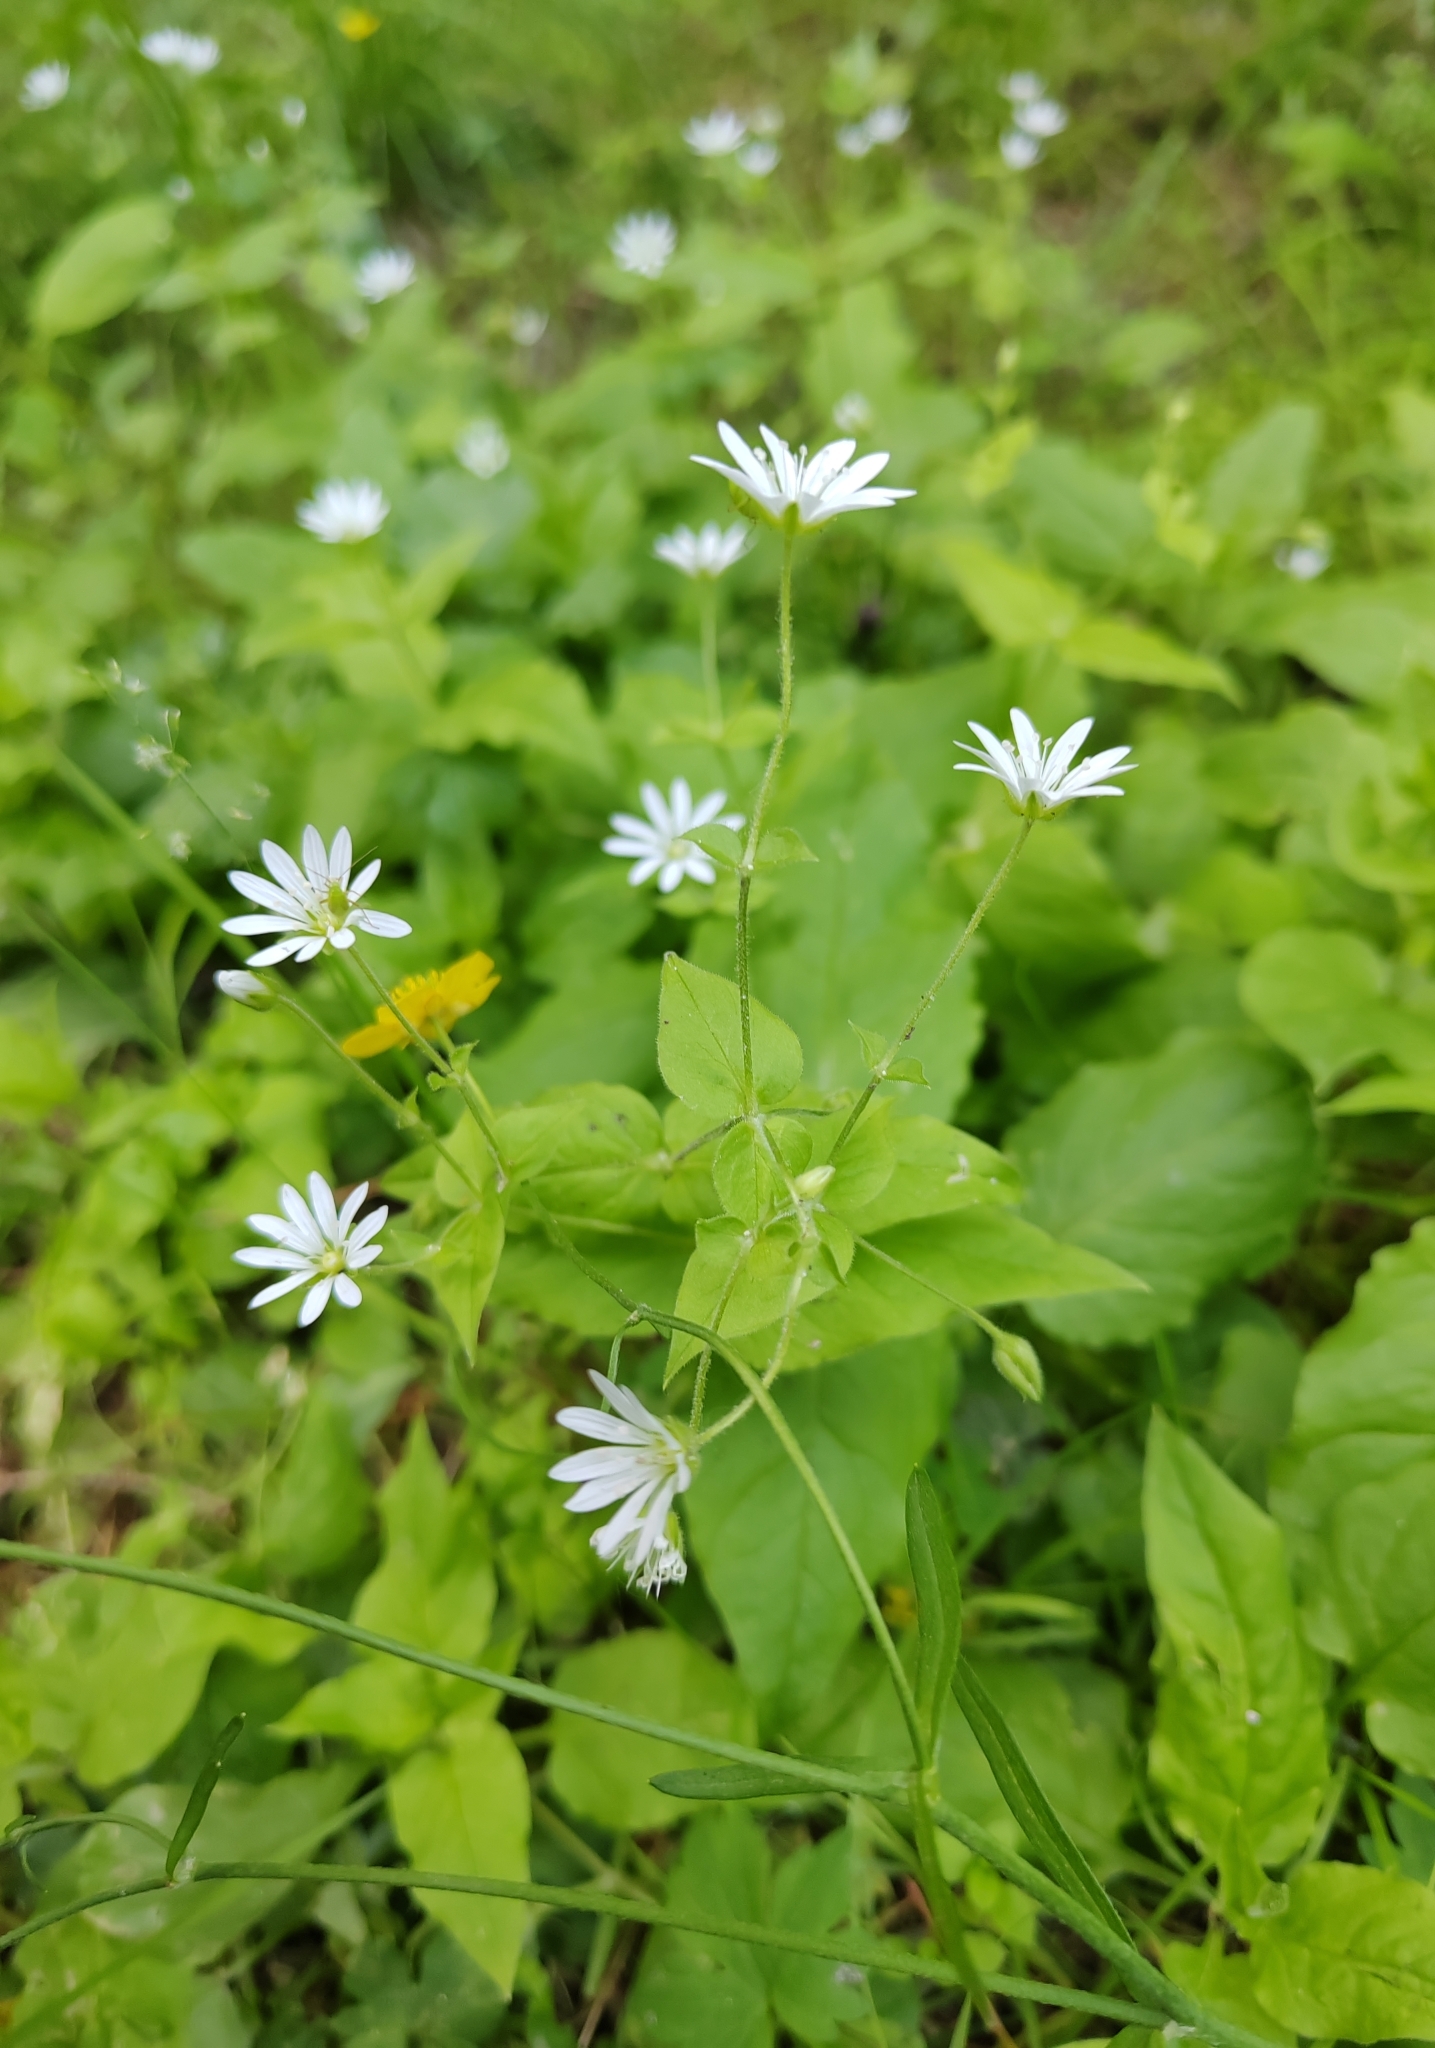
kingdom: Plantae
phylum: Tracheophyta
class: Magnoliopsida
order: Caryophyllales
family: Caryophyllaceae
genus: Stellaria
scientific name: Stellaria bungeana
